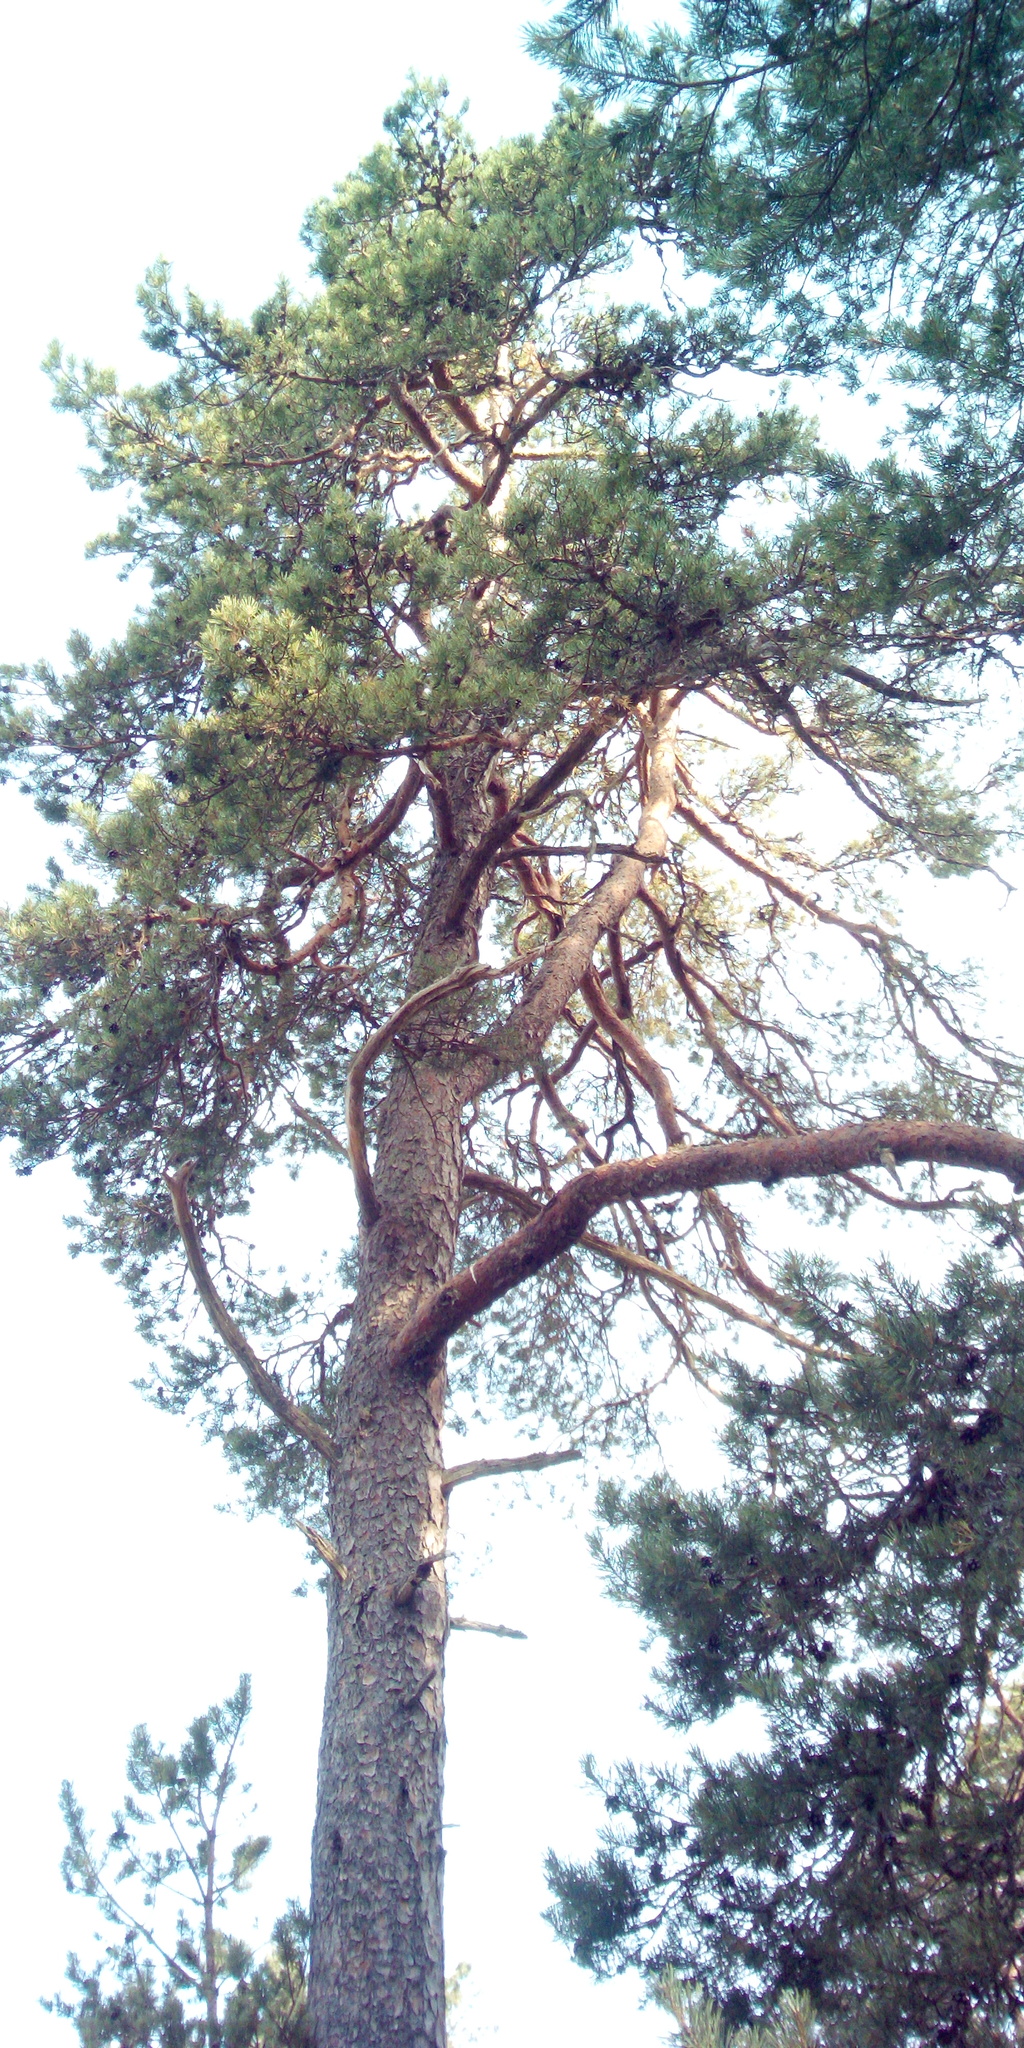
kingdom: Plantae
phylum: Tracheophyta
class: Pinopsida
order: Pinales
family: Pinaceae
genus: Pinus
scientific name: Pinus sylvestris
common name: Scots pine
